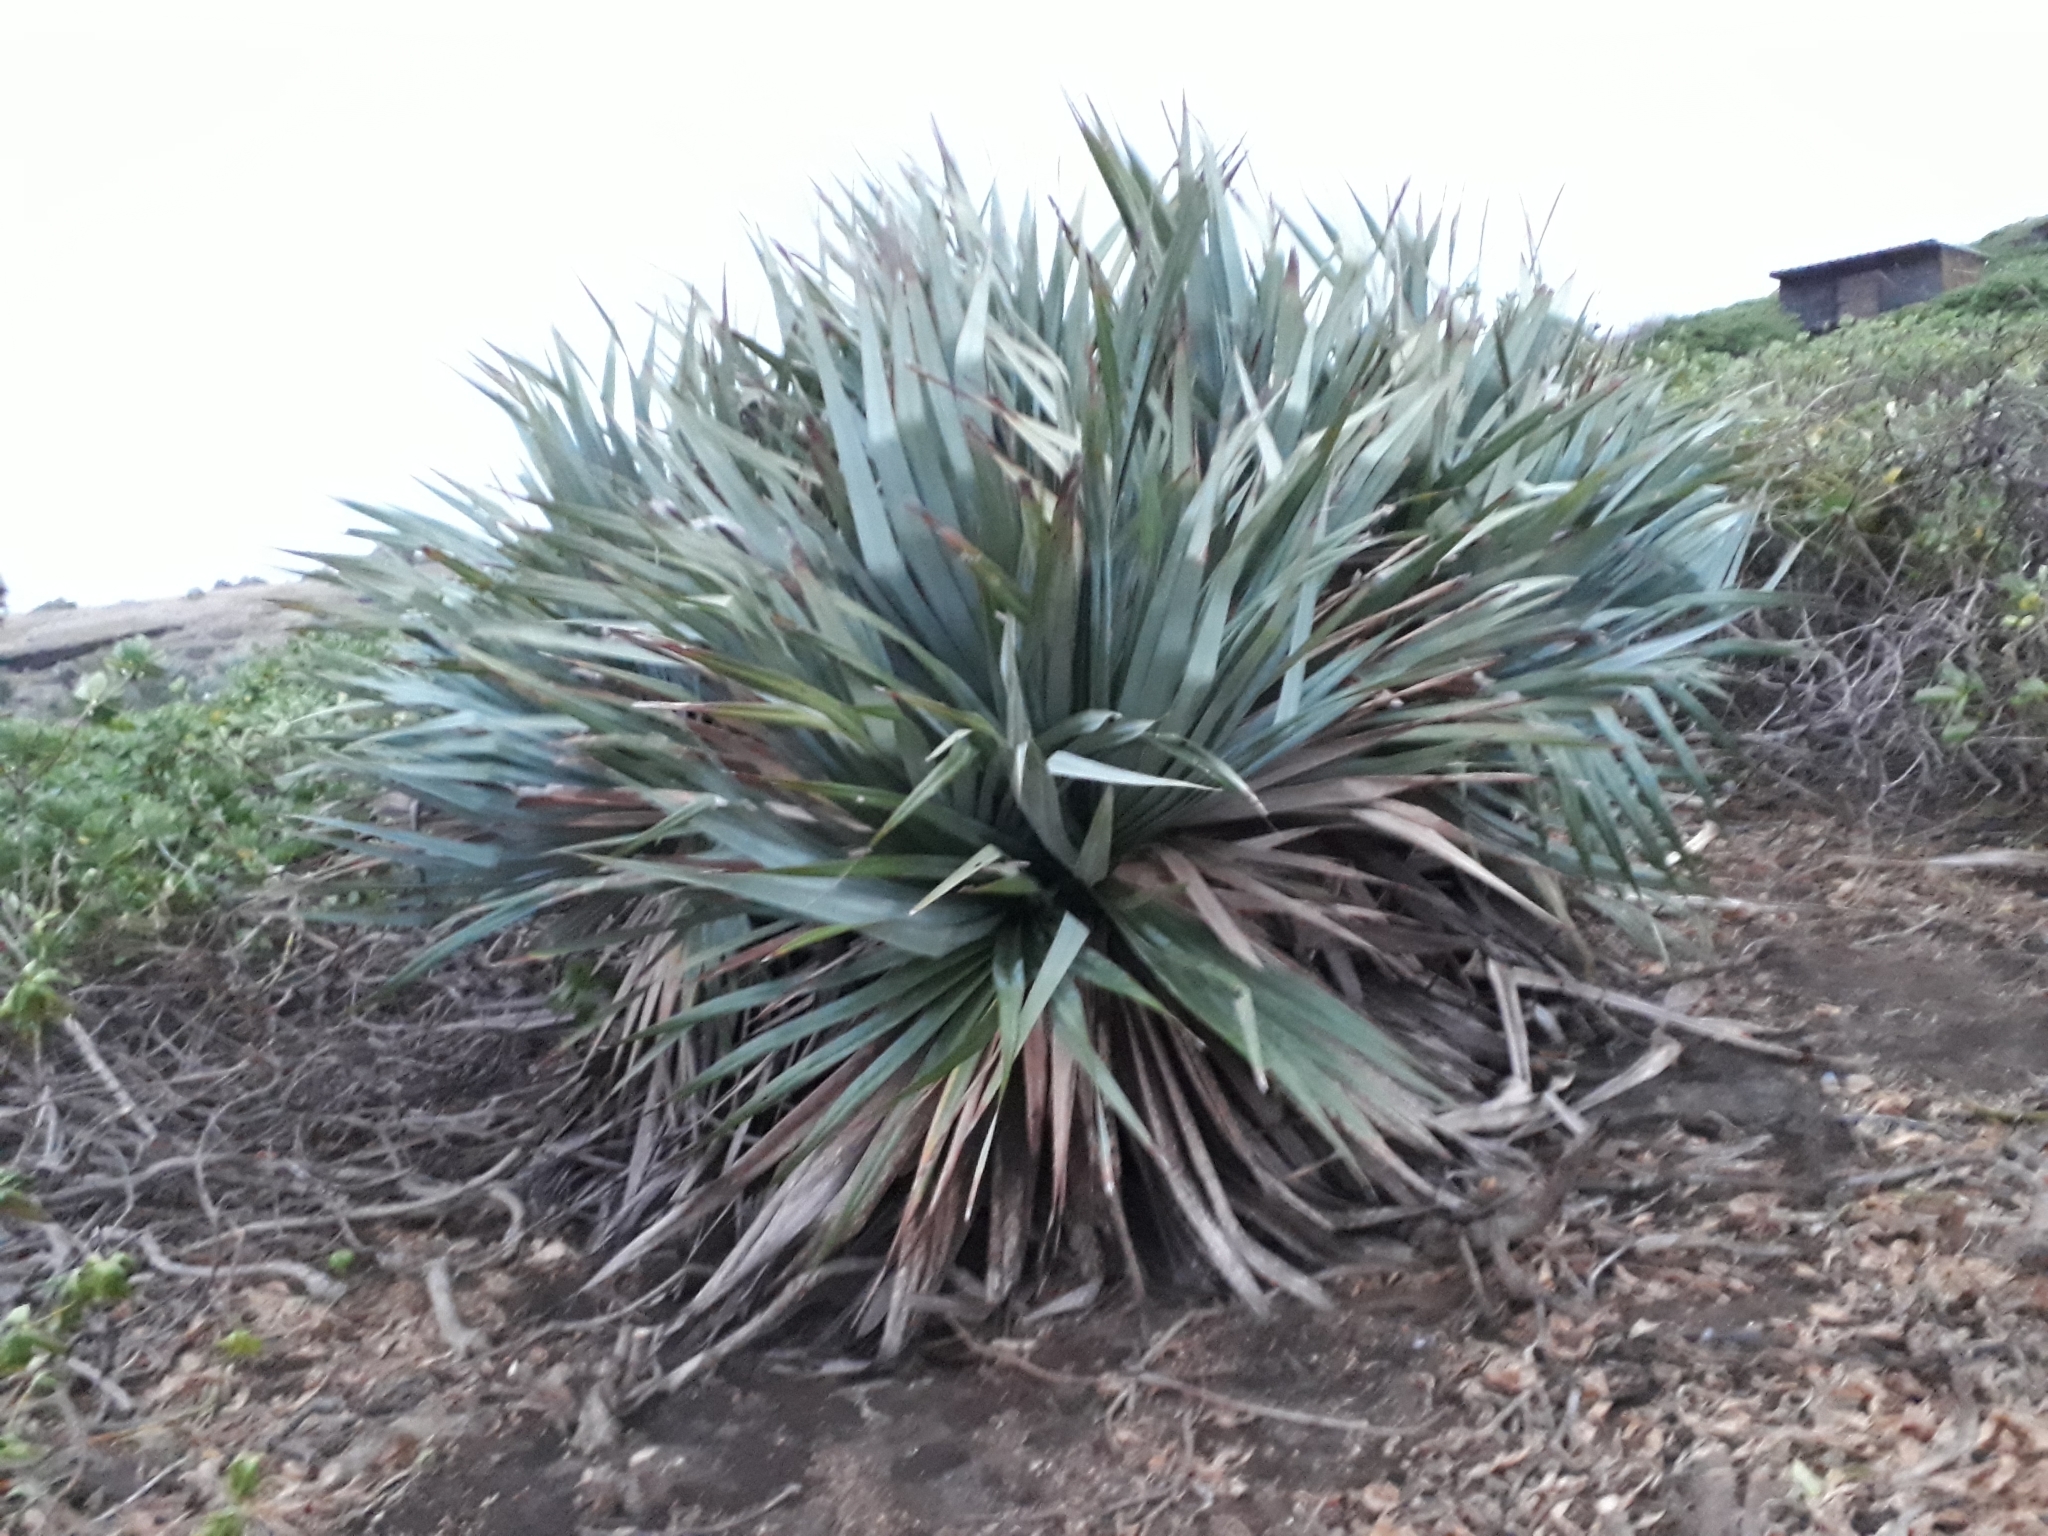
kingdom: Plantae
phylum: Tracheophyta
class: Liliopsida
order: Pandanales
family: Pandanaceae
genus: Pandanus
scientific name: Pandanus vandermeeschii
